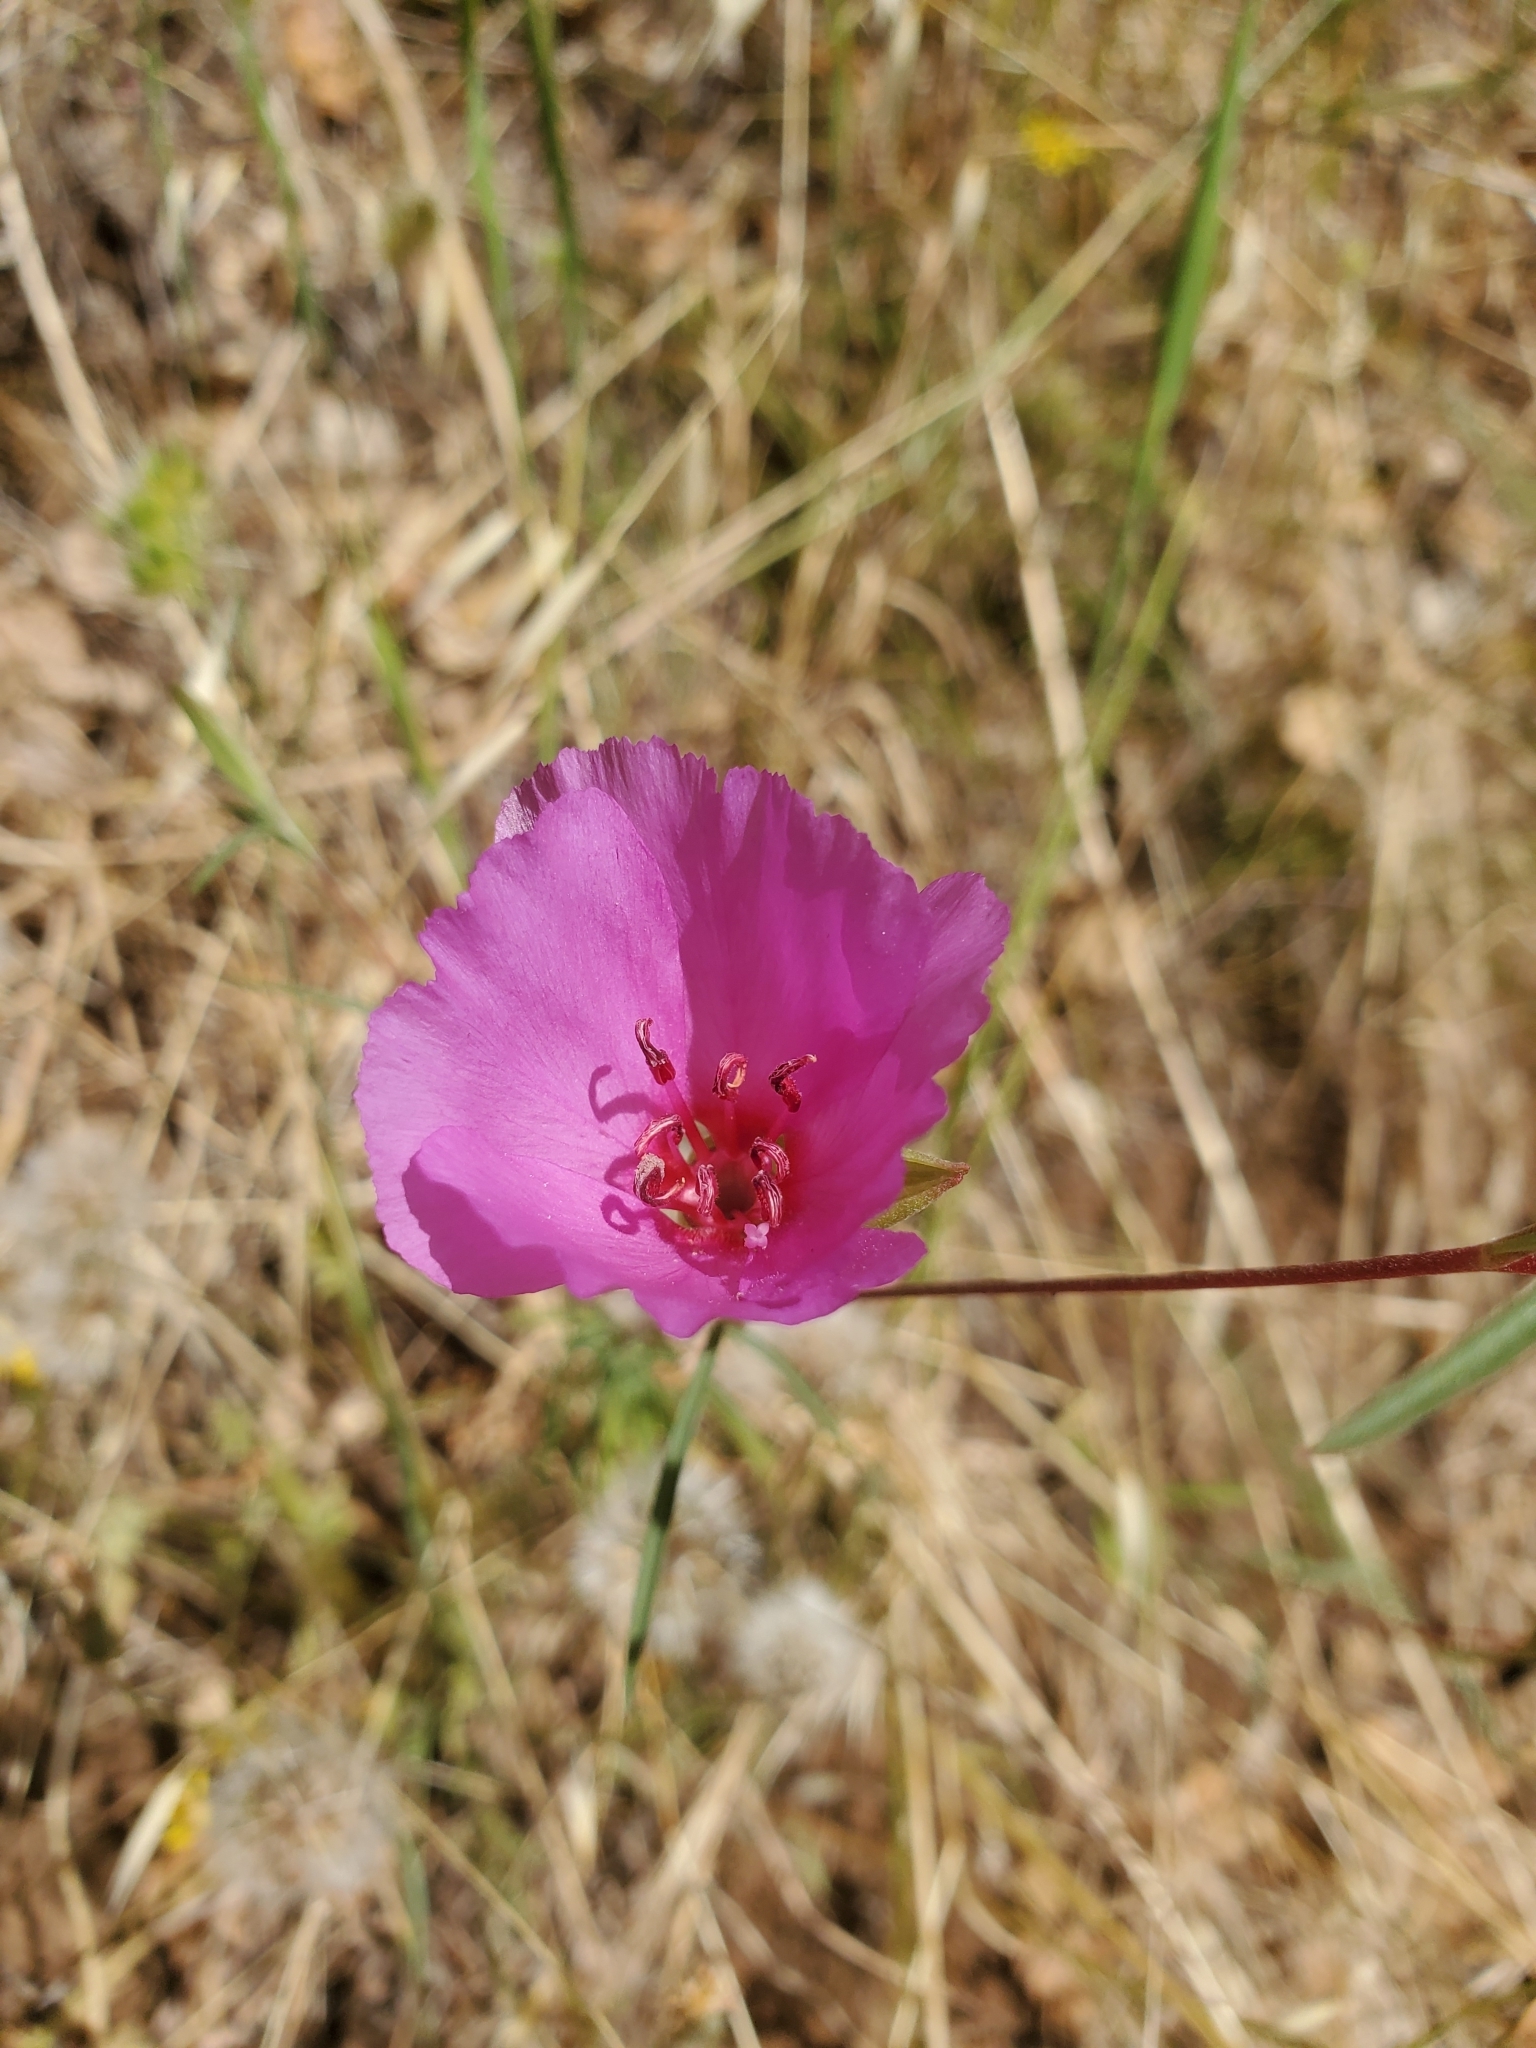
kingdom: Plantae
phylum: Tracheophyta
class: Magnoliopsida
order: Myrtales
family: Onagraceae
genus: Clarkia
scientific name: Clarkia rubicunda
